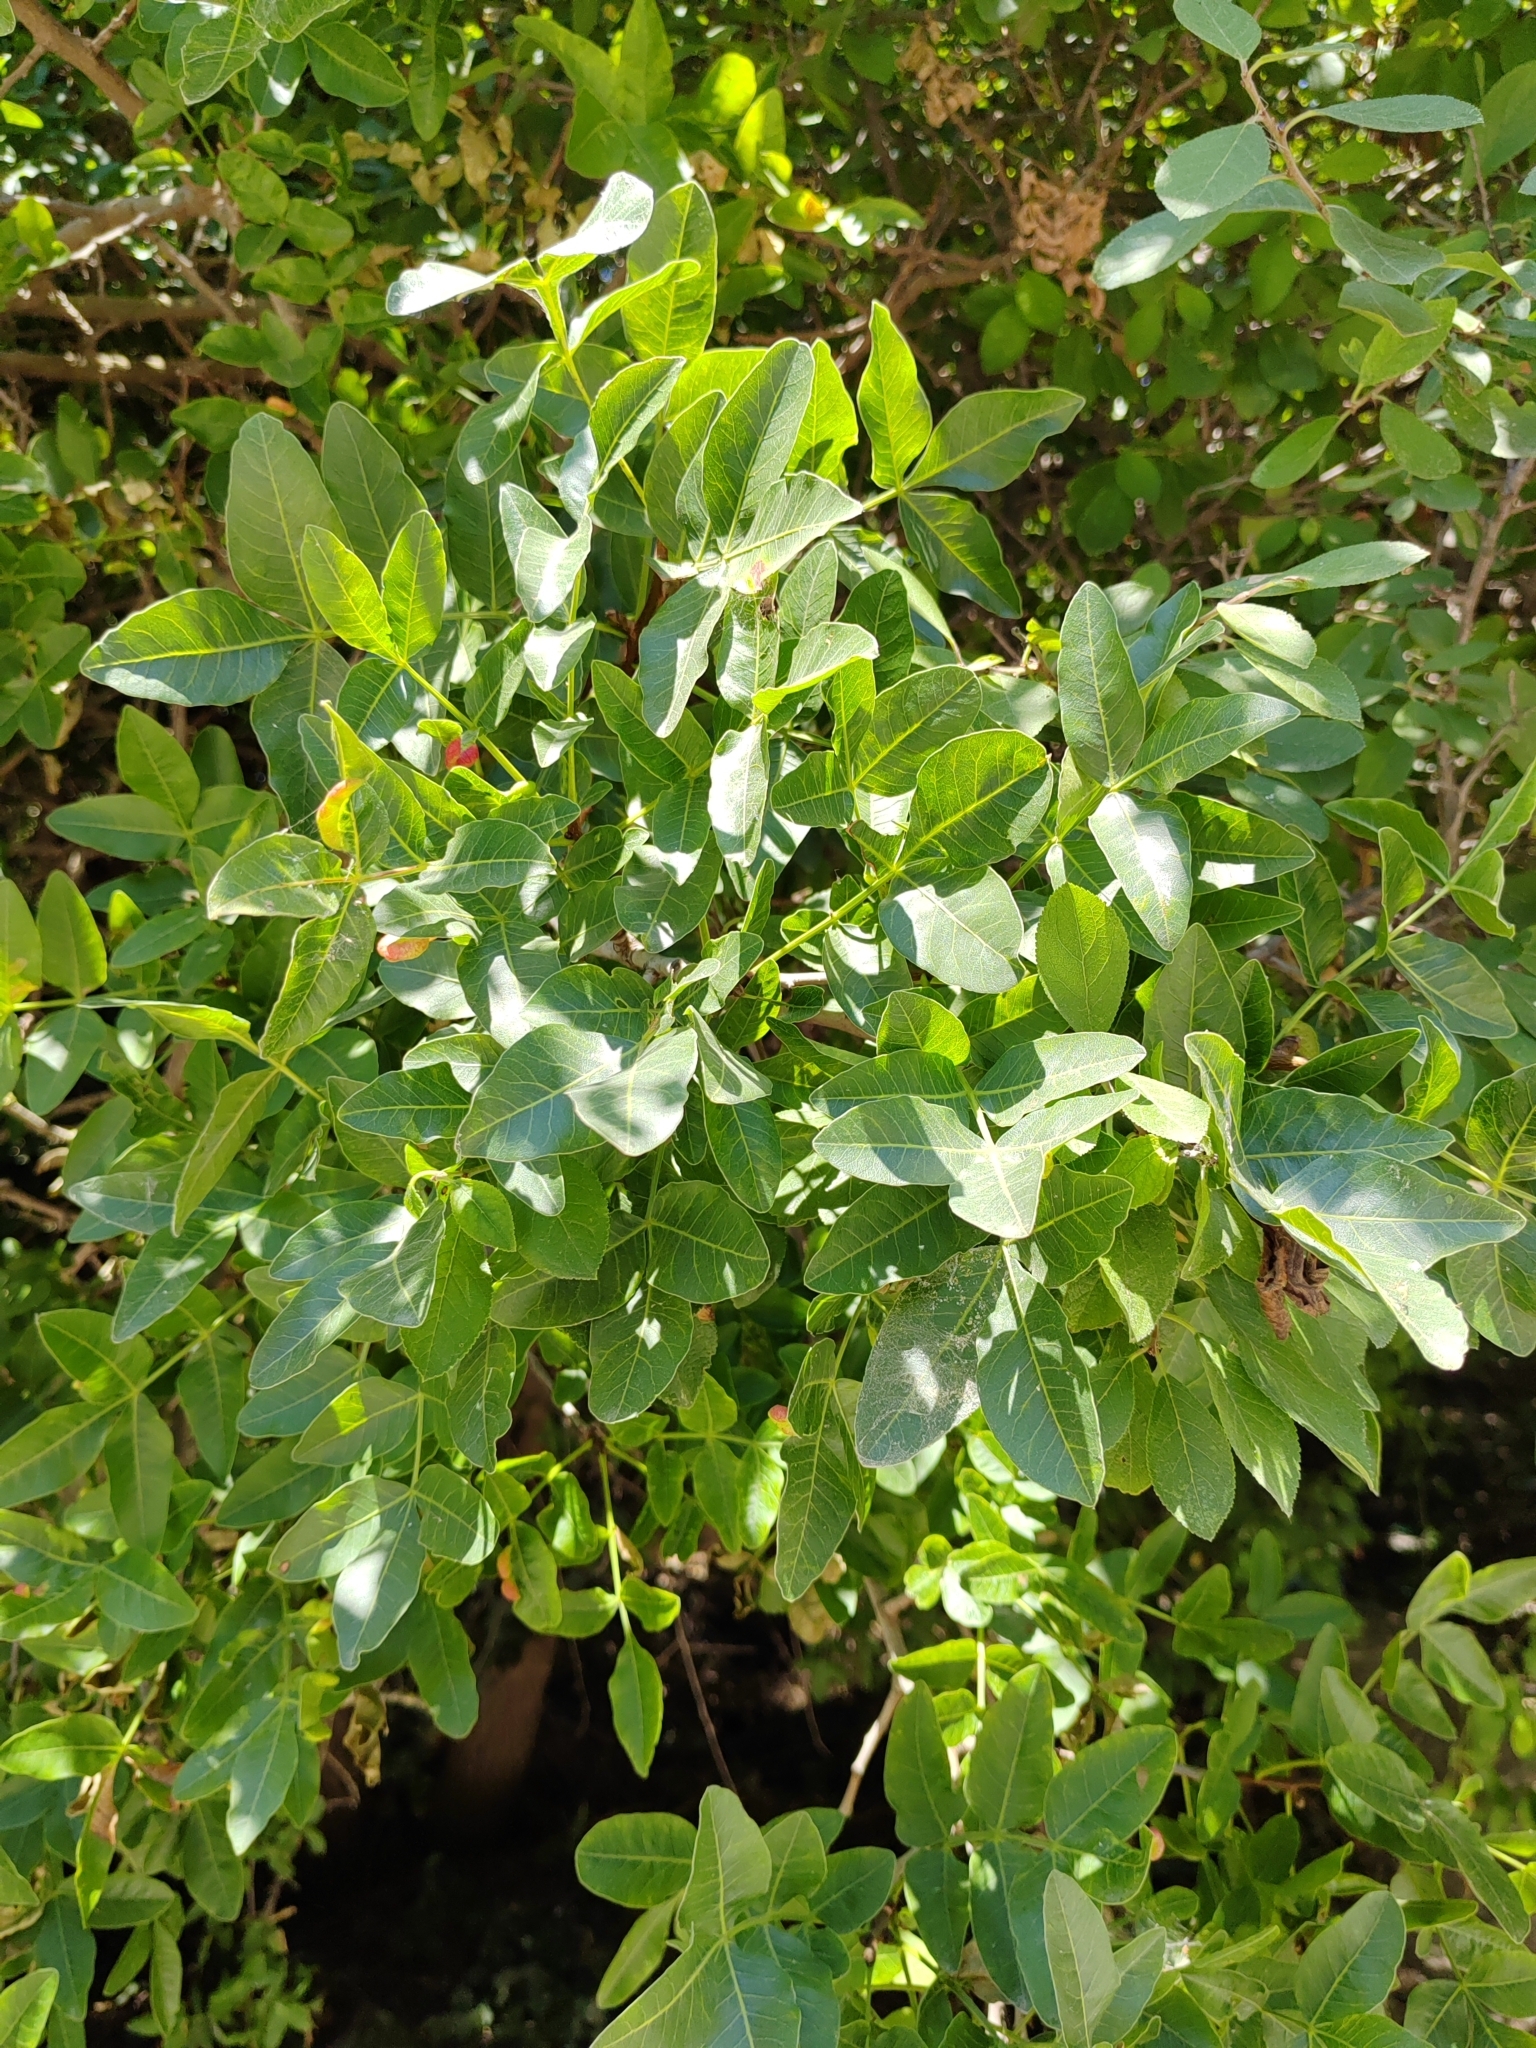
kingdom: Plantae
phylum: Tracheophyta
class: Magnoliopsida
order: Sapindales
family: Anacardiaceae
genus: Pistacia
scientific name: Pistacia atlantica
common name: Mt. atlas mastic tree
